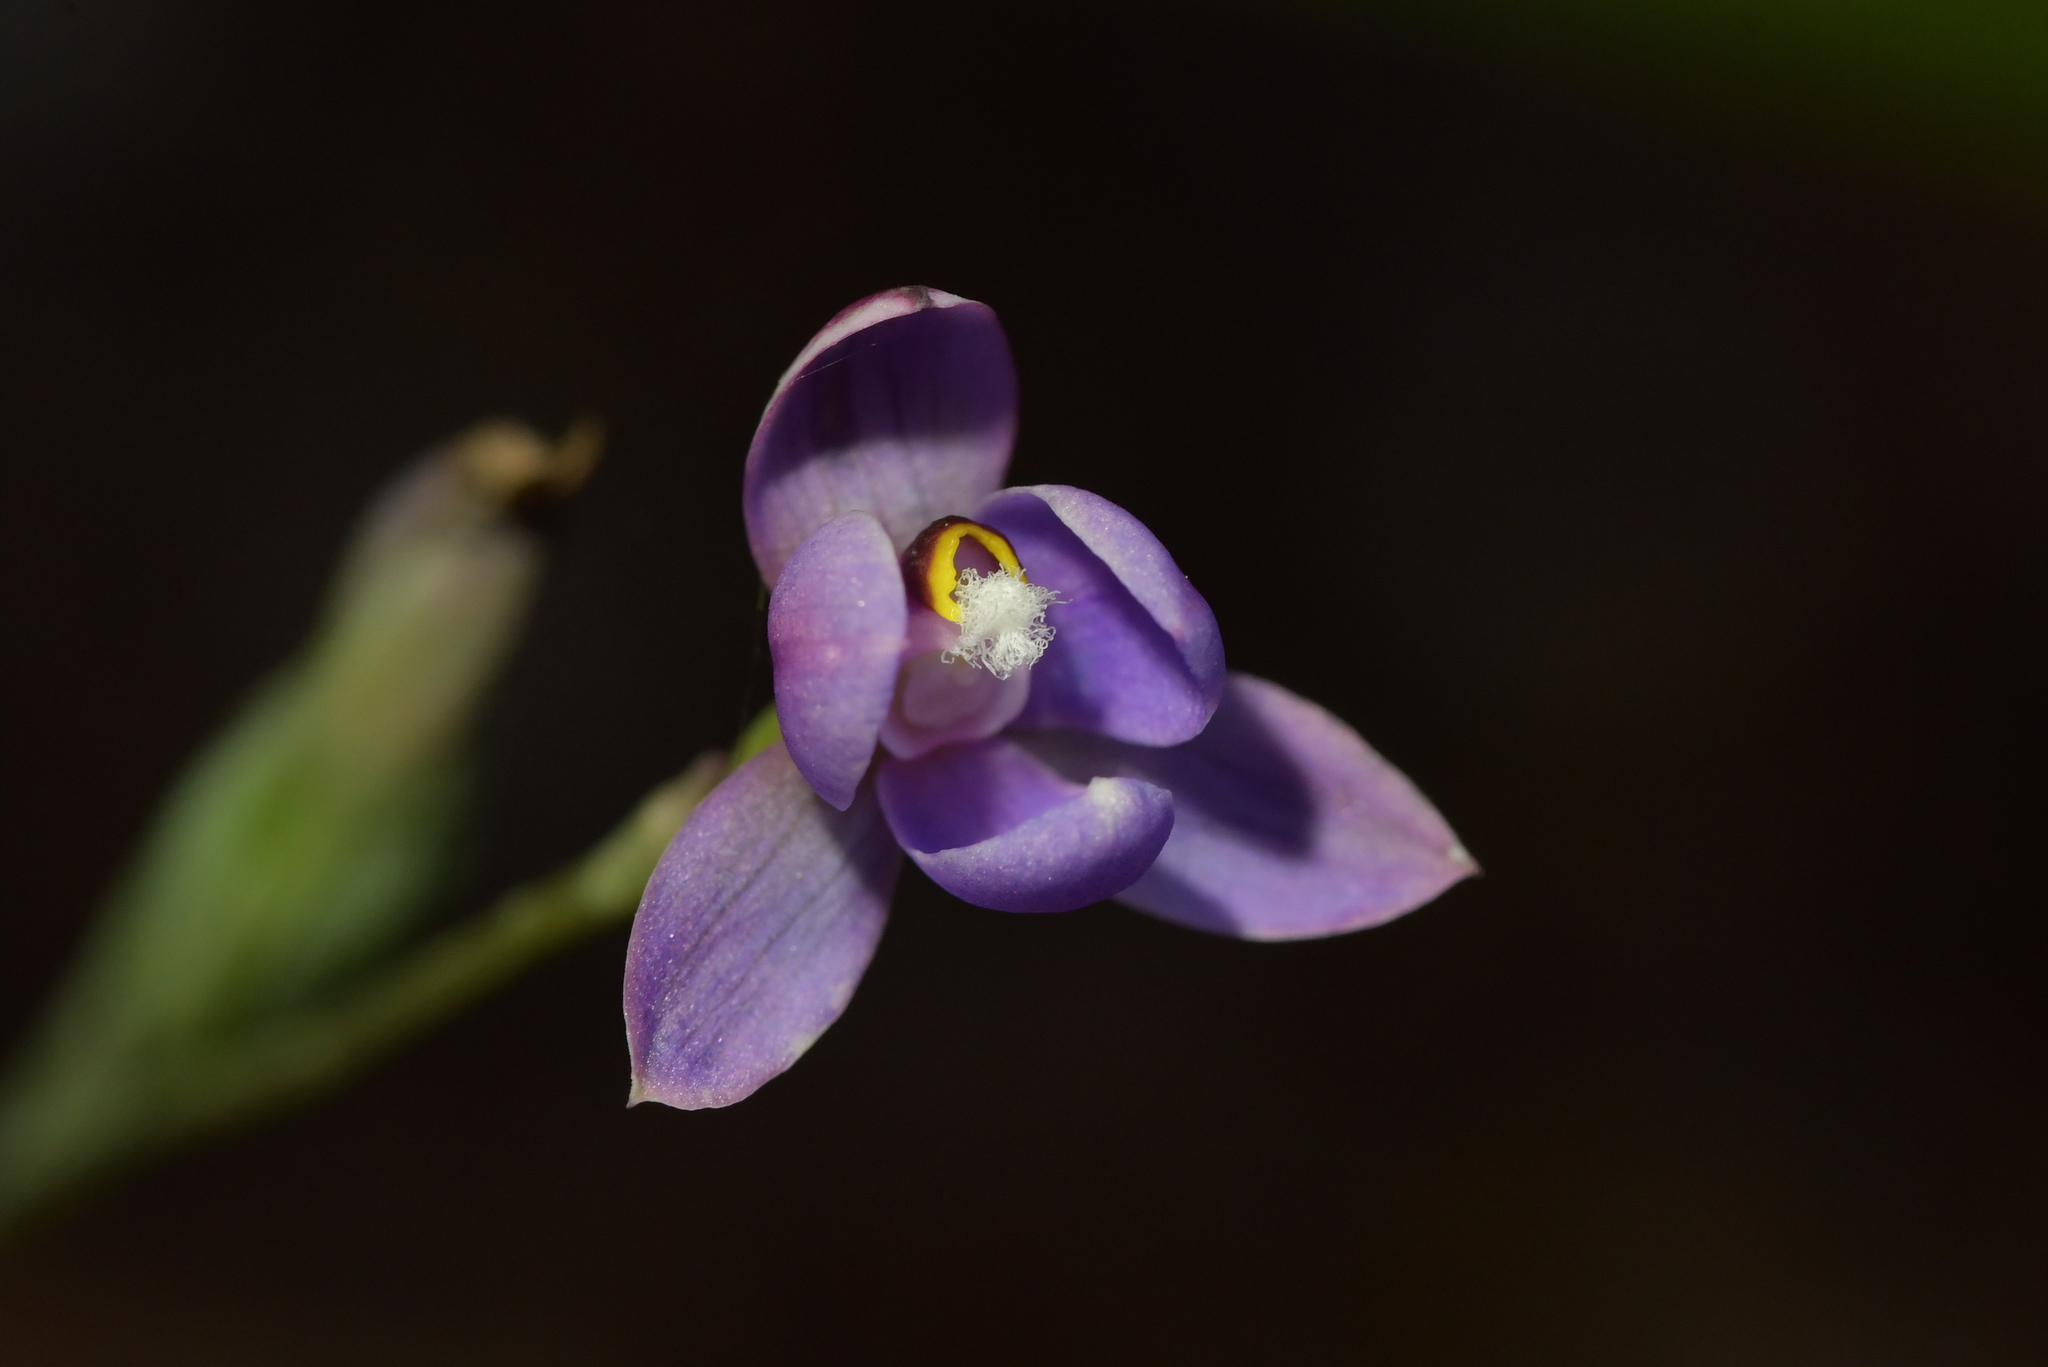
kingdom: Plantae
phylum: Tracheophyta
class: Liliopsida
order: Asparagales
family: Orchidaceae
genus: Thelymitra
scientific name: Thelymitra nervosa
